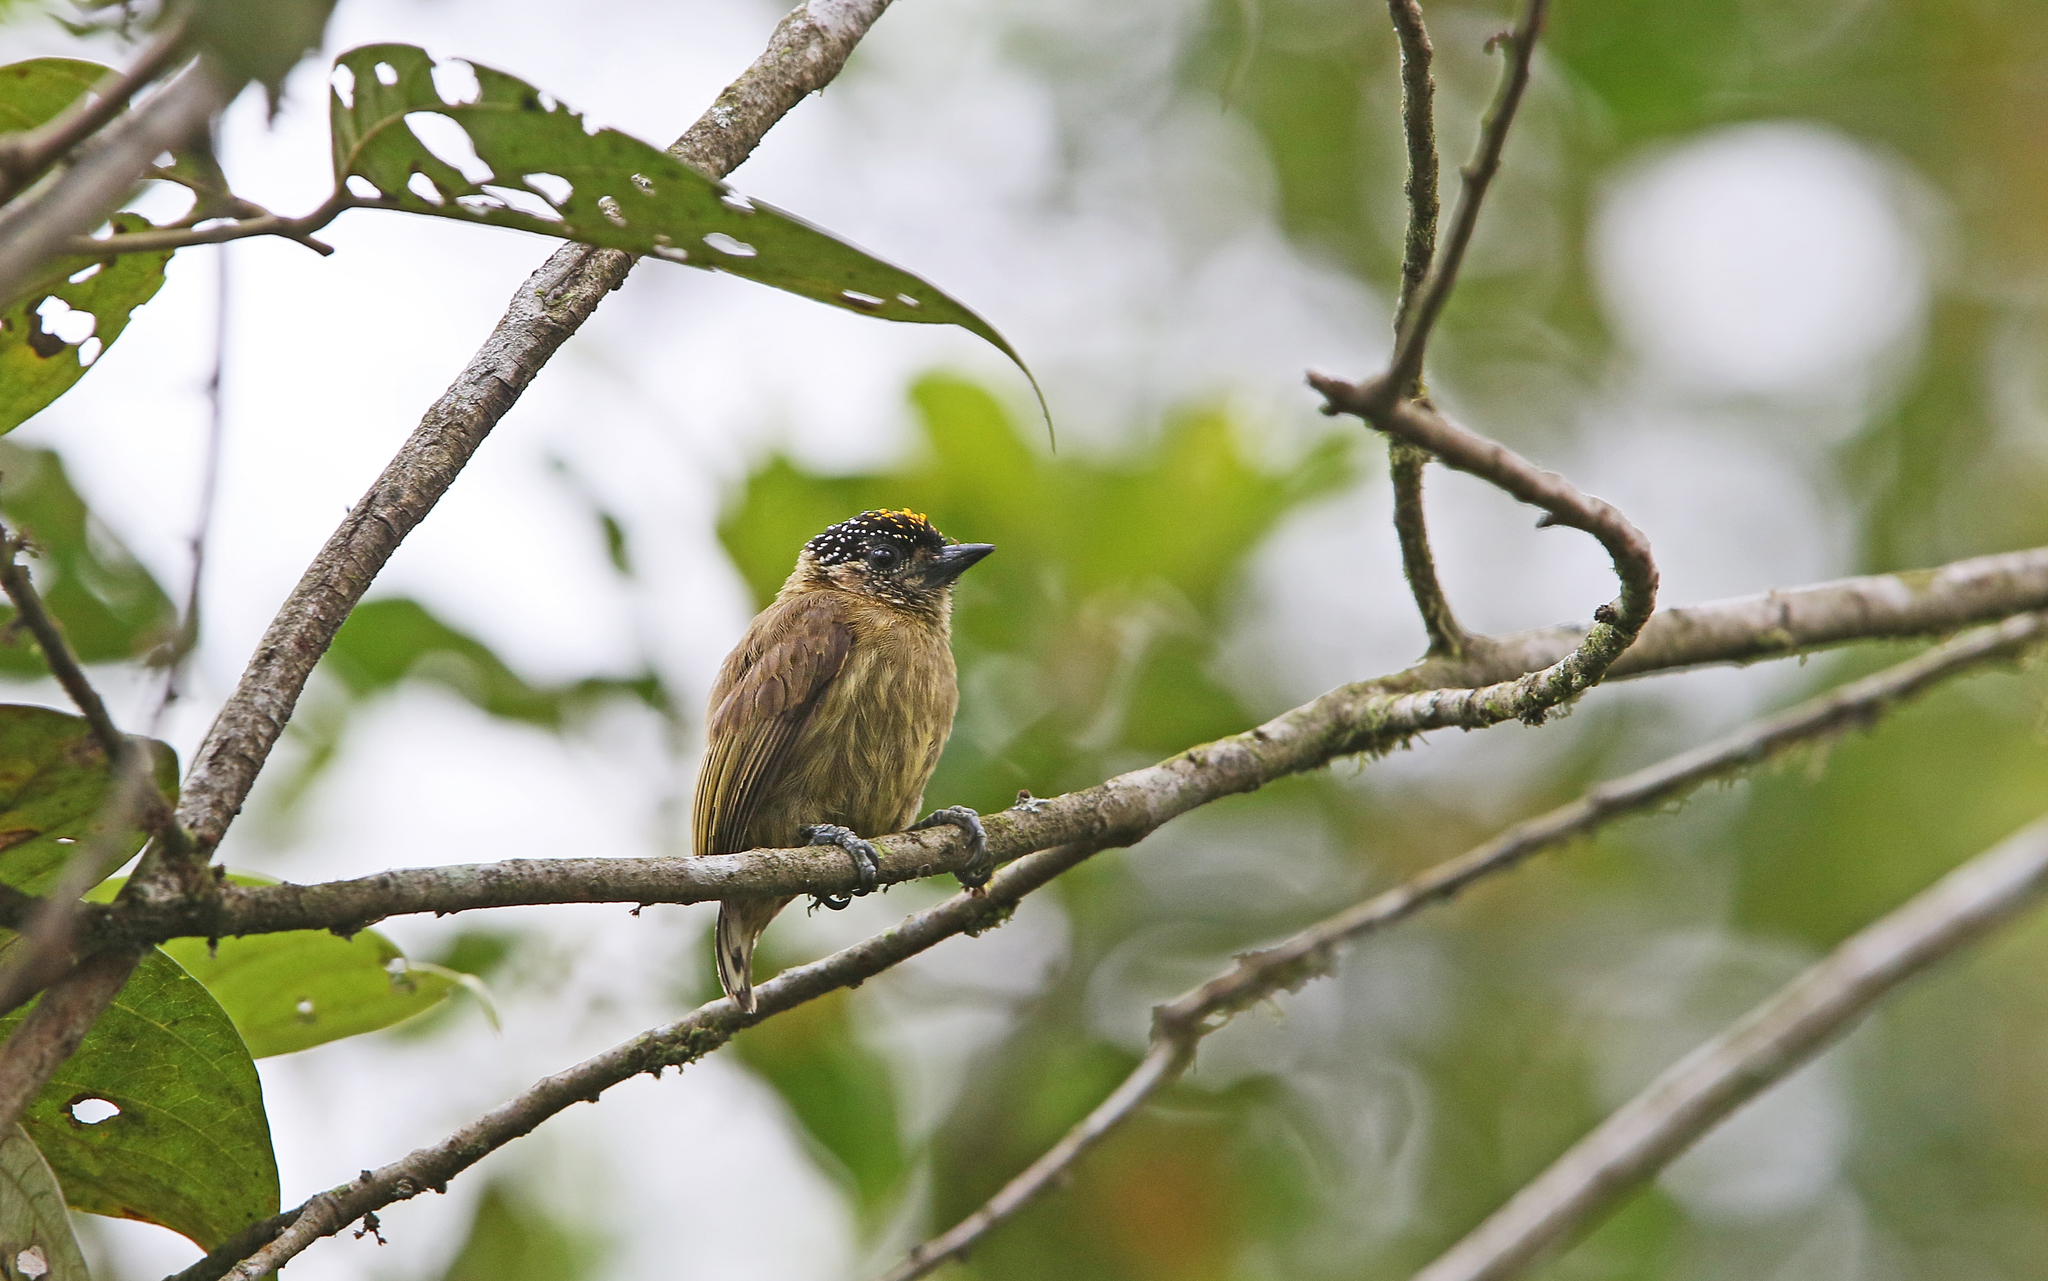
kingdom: Animalia
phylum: Chordata
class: Aves
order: Piciformes
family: Picidae
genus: Picumnus
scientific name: Picumnus olivaceus
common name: Olivaceous piculet
